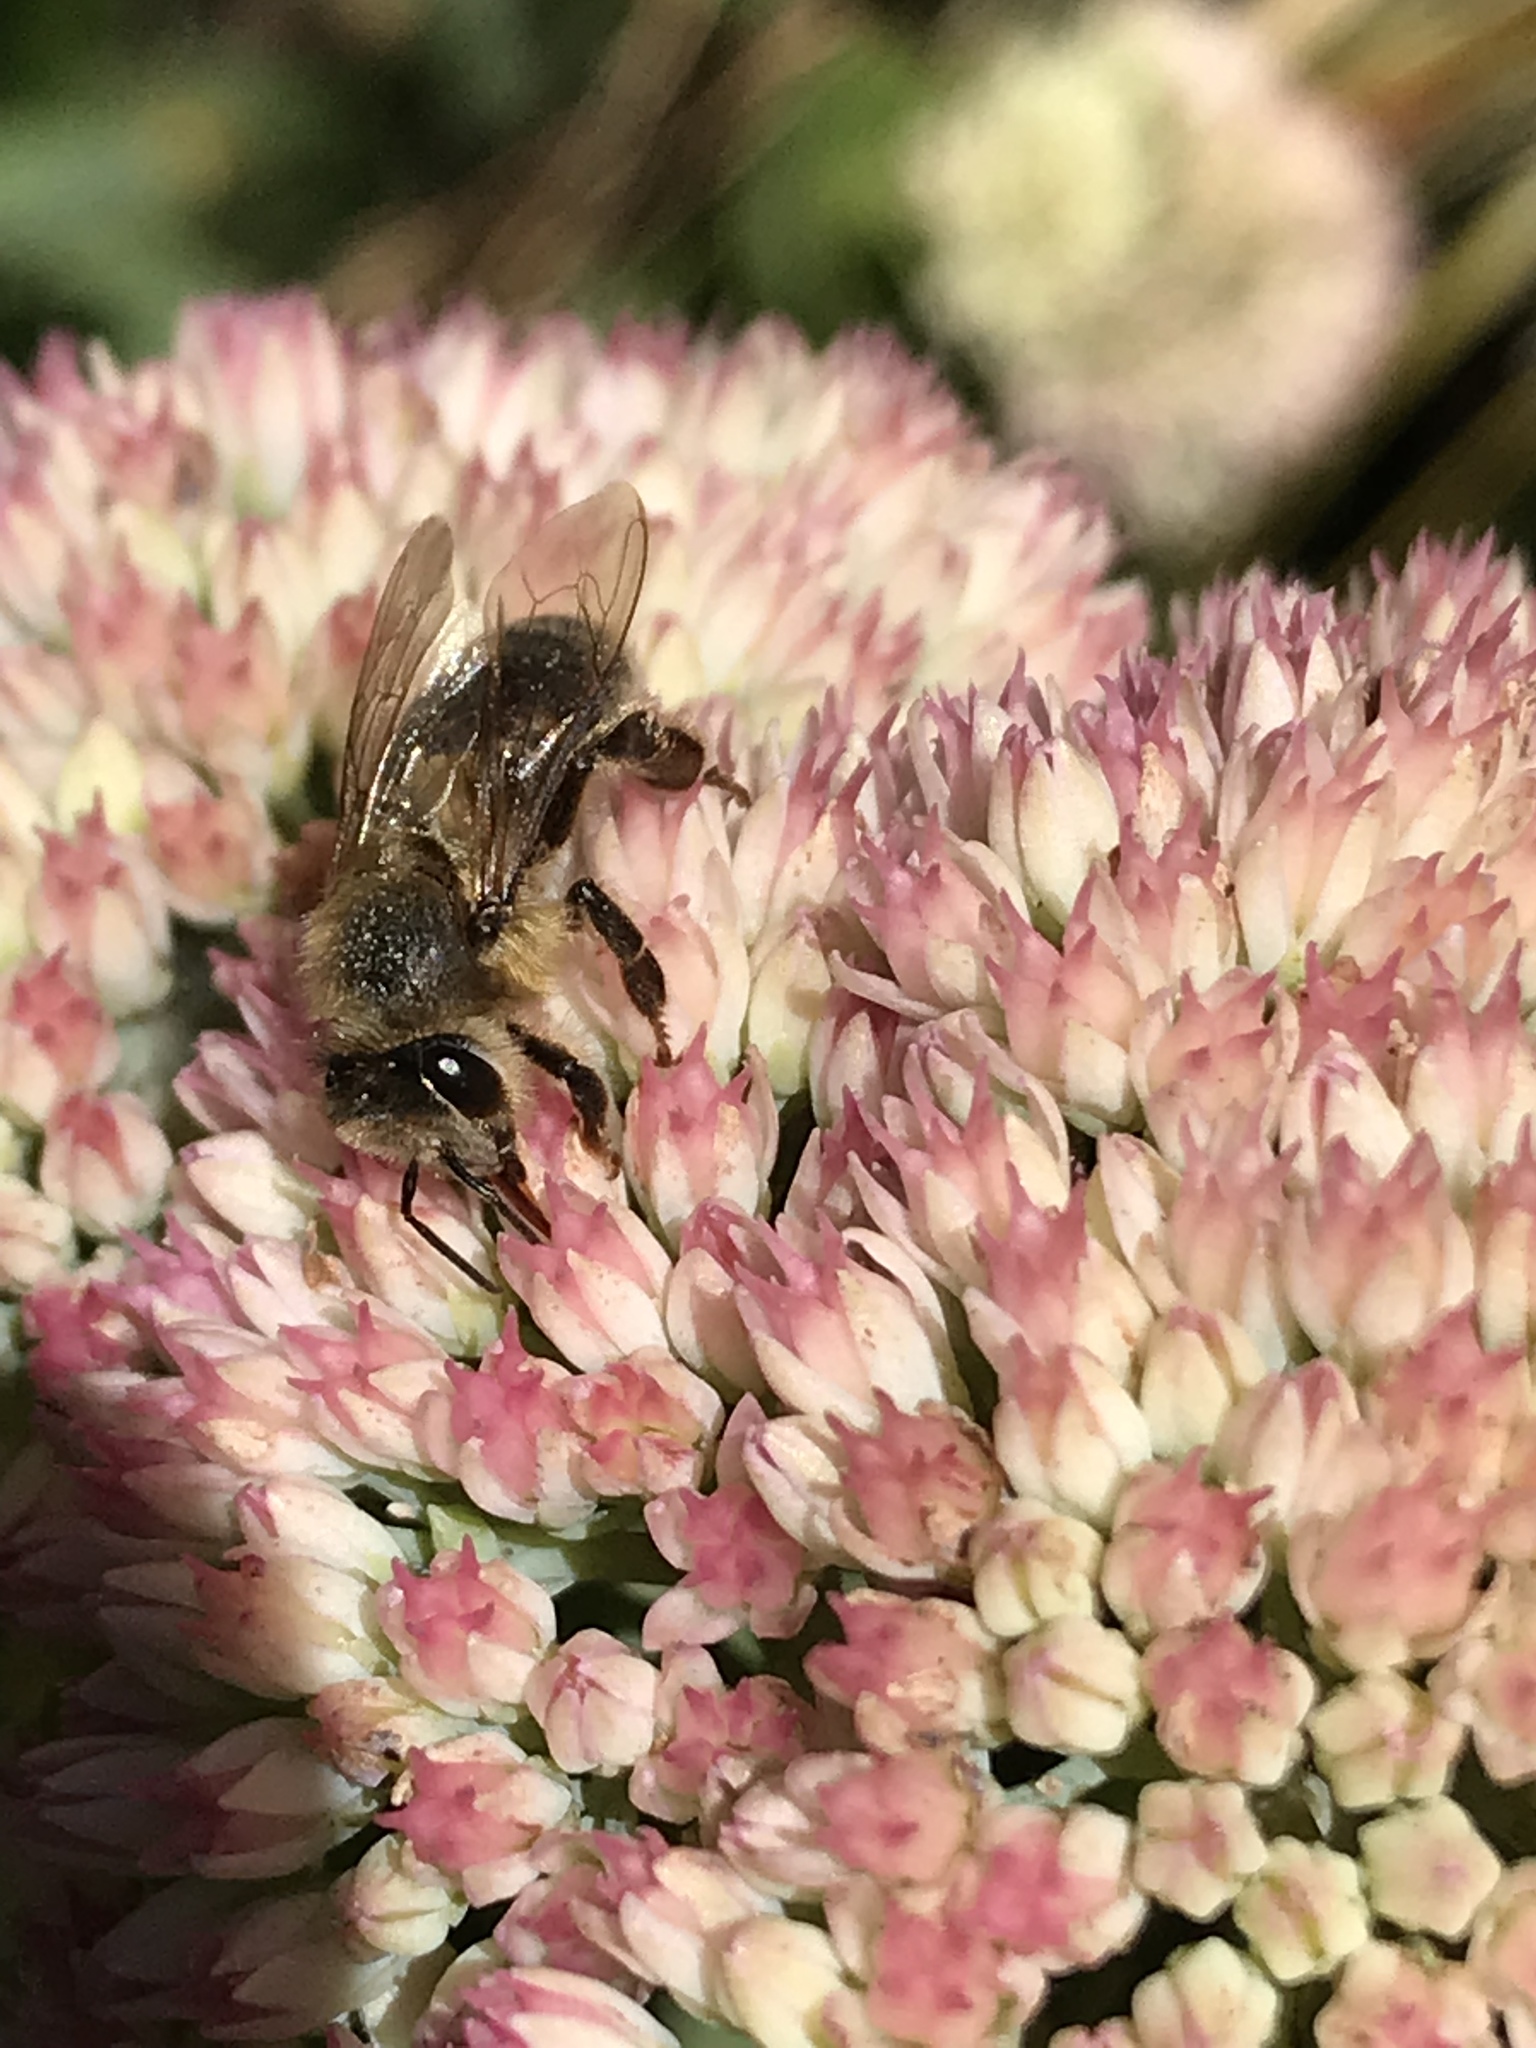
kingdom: Animalia
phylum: Arthropoda
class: Insecta
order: Hymenoptera
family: Apidae
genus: Apis
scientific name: Apis mellifera
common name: Honey bee
